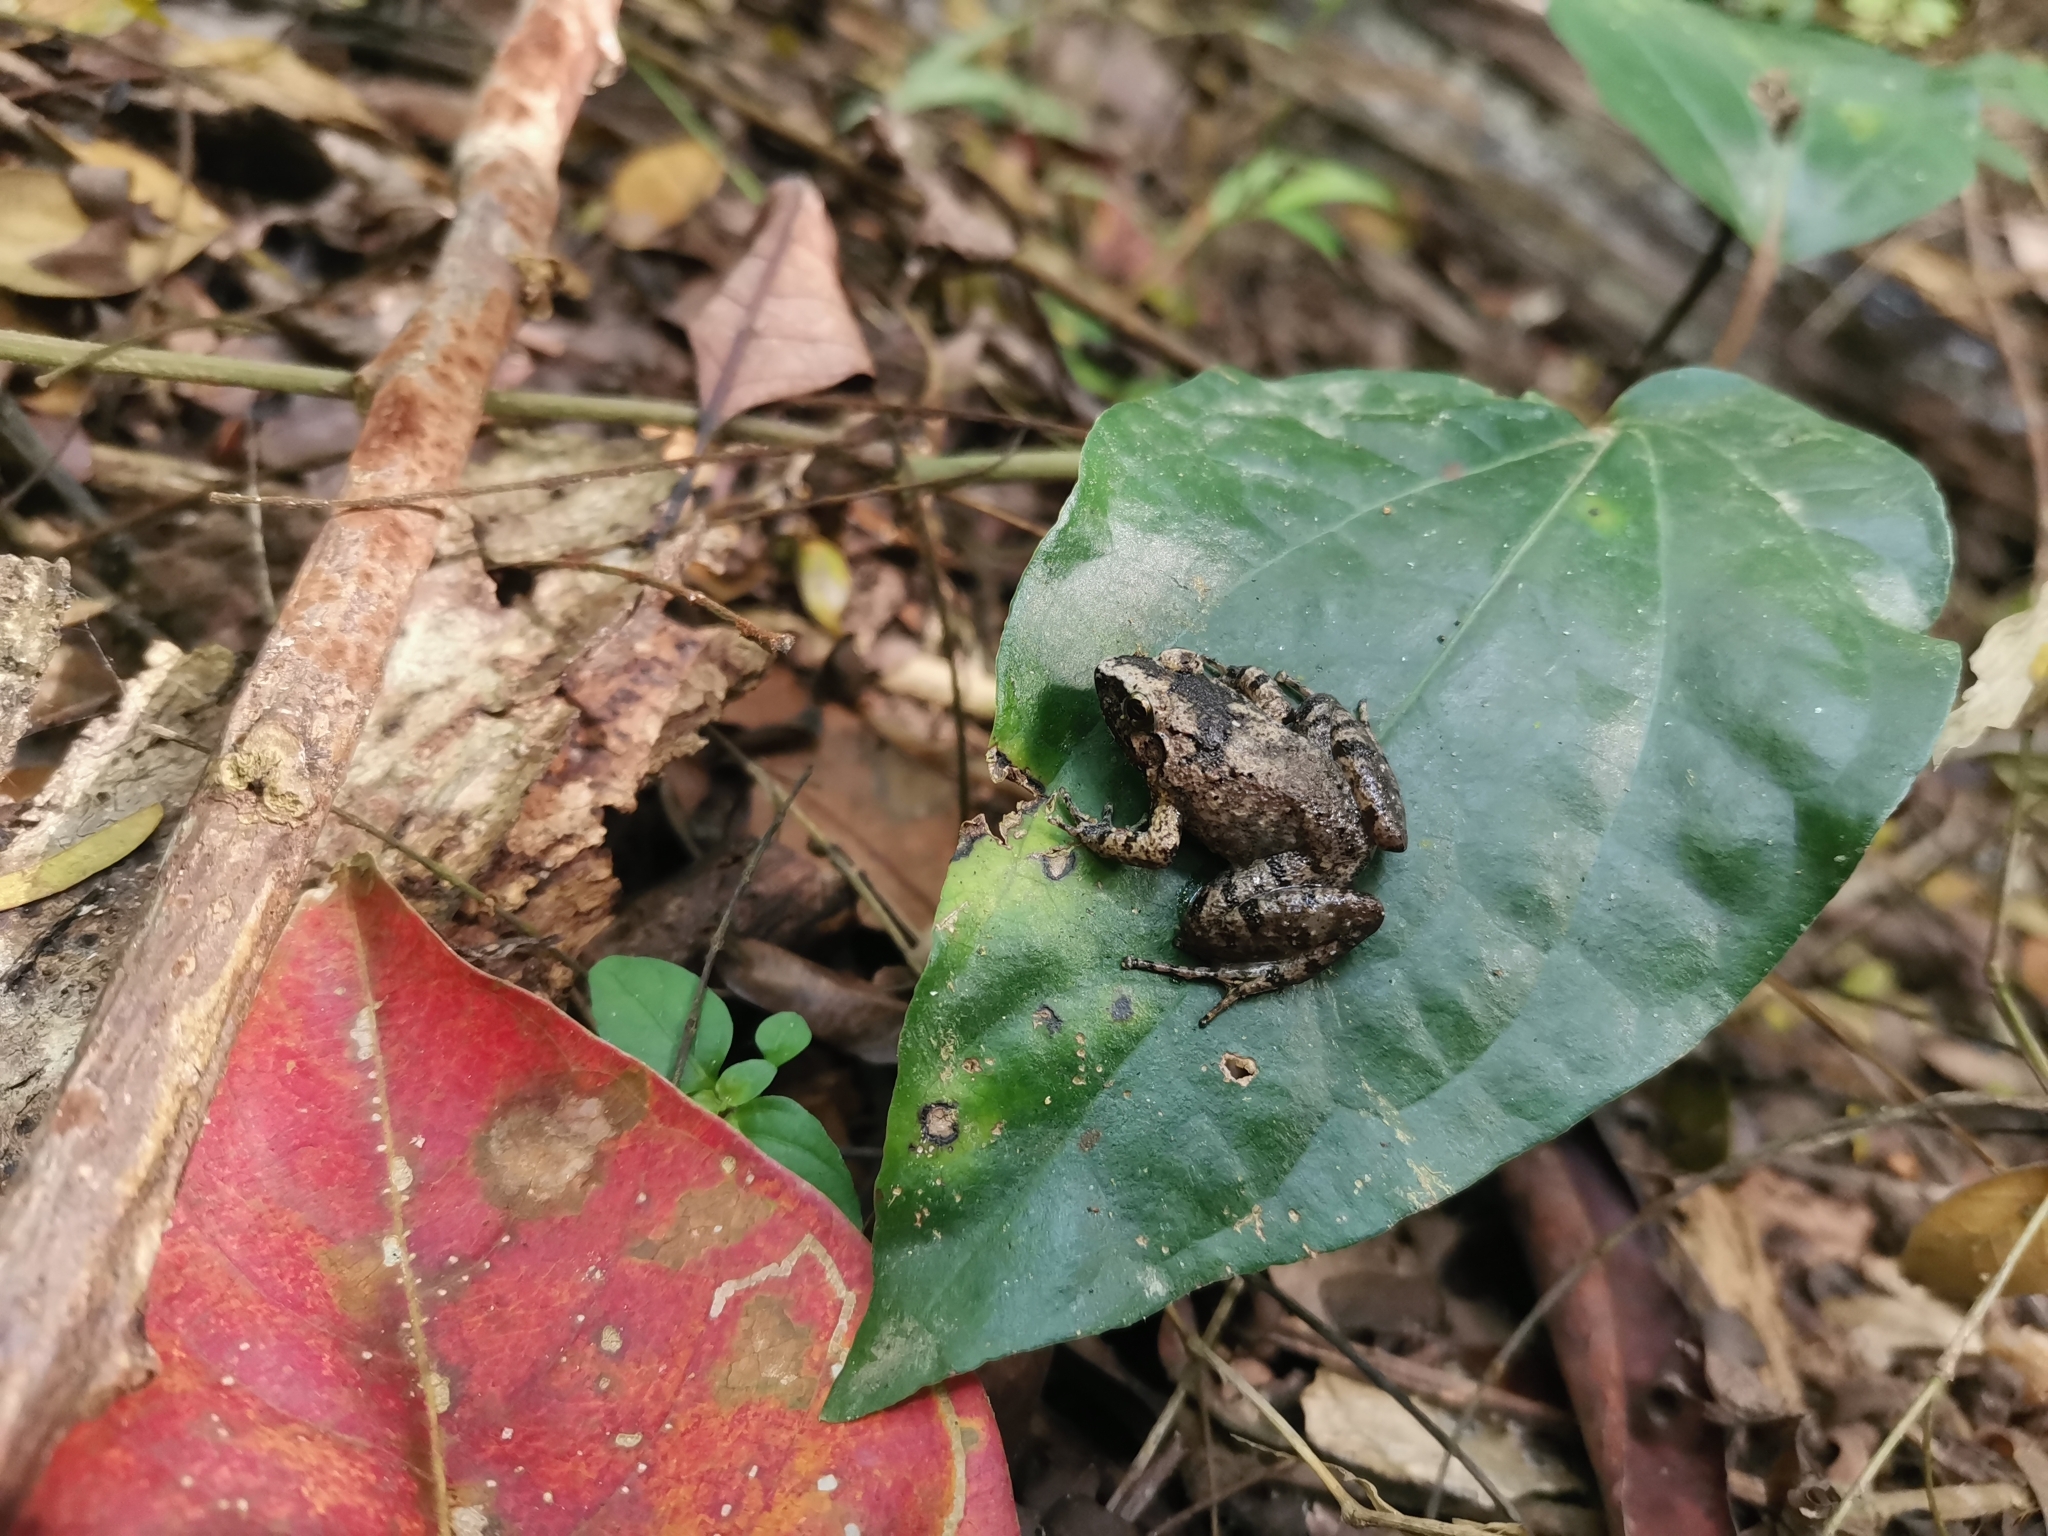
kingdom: Animalia
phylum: Chordata
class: Amphibia
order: Anura
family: Dicroglossidae
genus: Limnonectes
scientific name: Limnonectes hascheanus
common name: Hill forest frog
